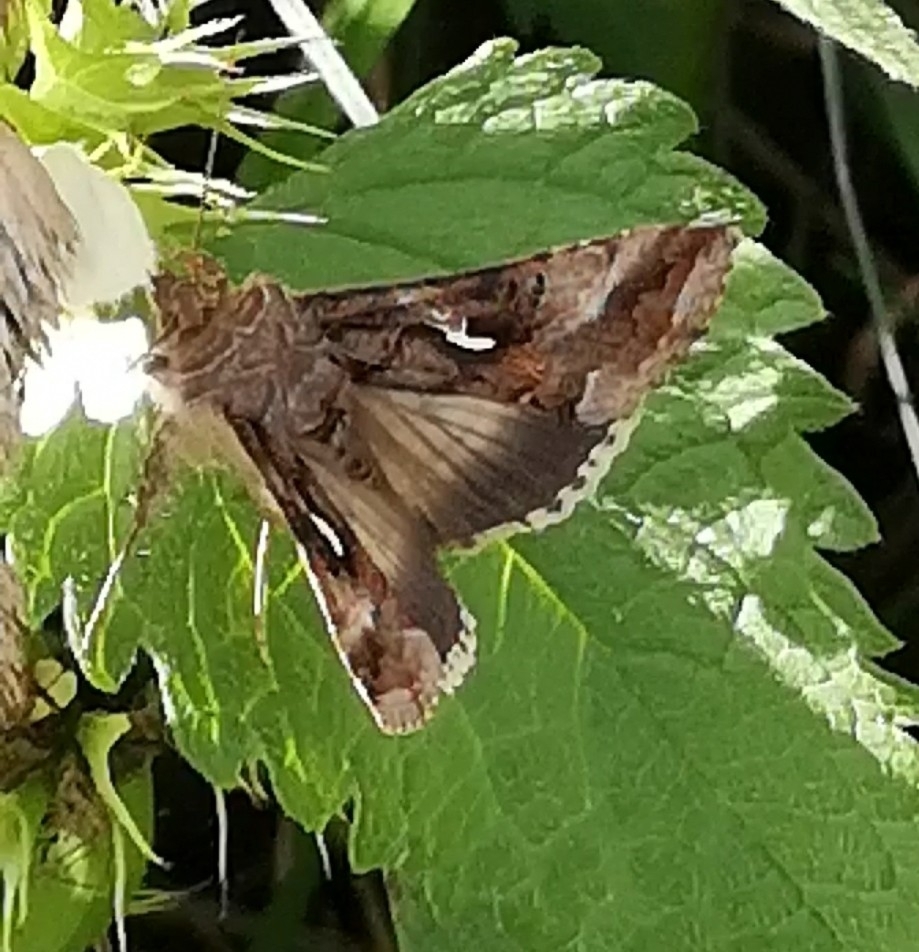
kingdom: Animalia
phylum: Arthropoda
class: Insecta
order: Lepidoptera
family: Noctuidae
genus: Autographa
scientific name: Autographa gamma
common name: Silver y
